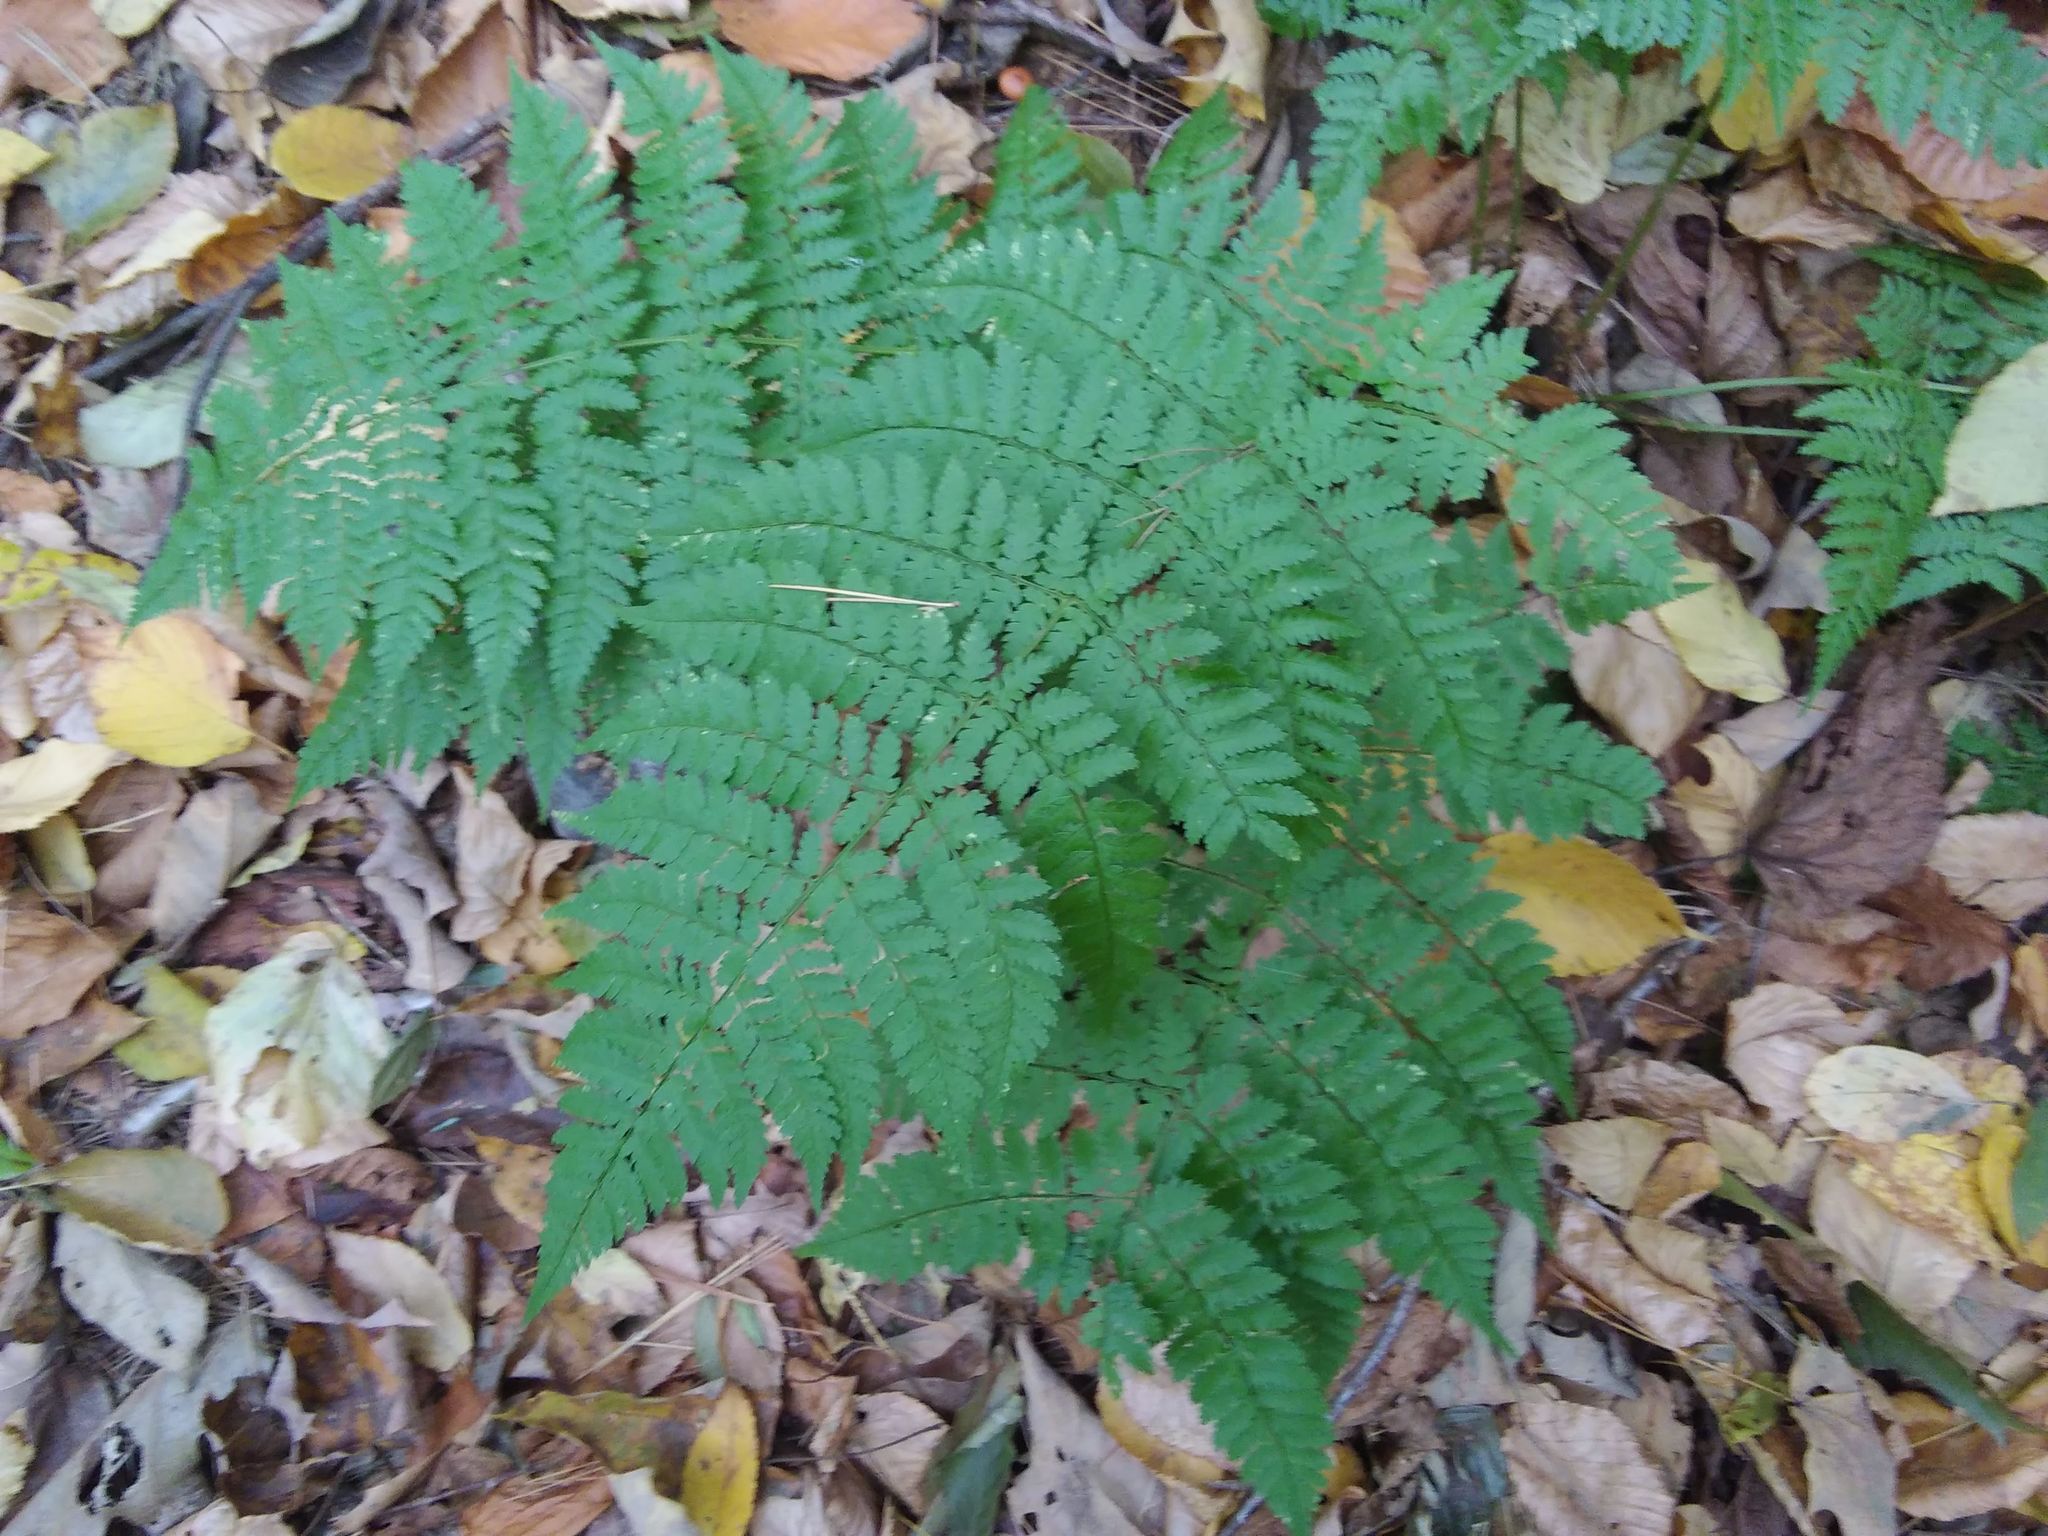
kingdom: Plantae
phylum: Tracheophyta
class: Polypodiopsida
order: Polypodiales
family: Dryopteridaceae
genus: Dryopteris
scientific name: Dryopteris intermedia
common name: Evergreen wood fern
